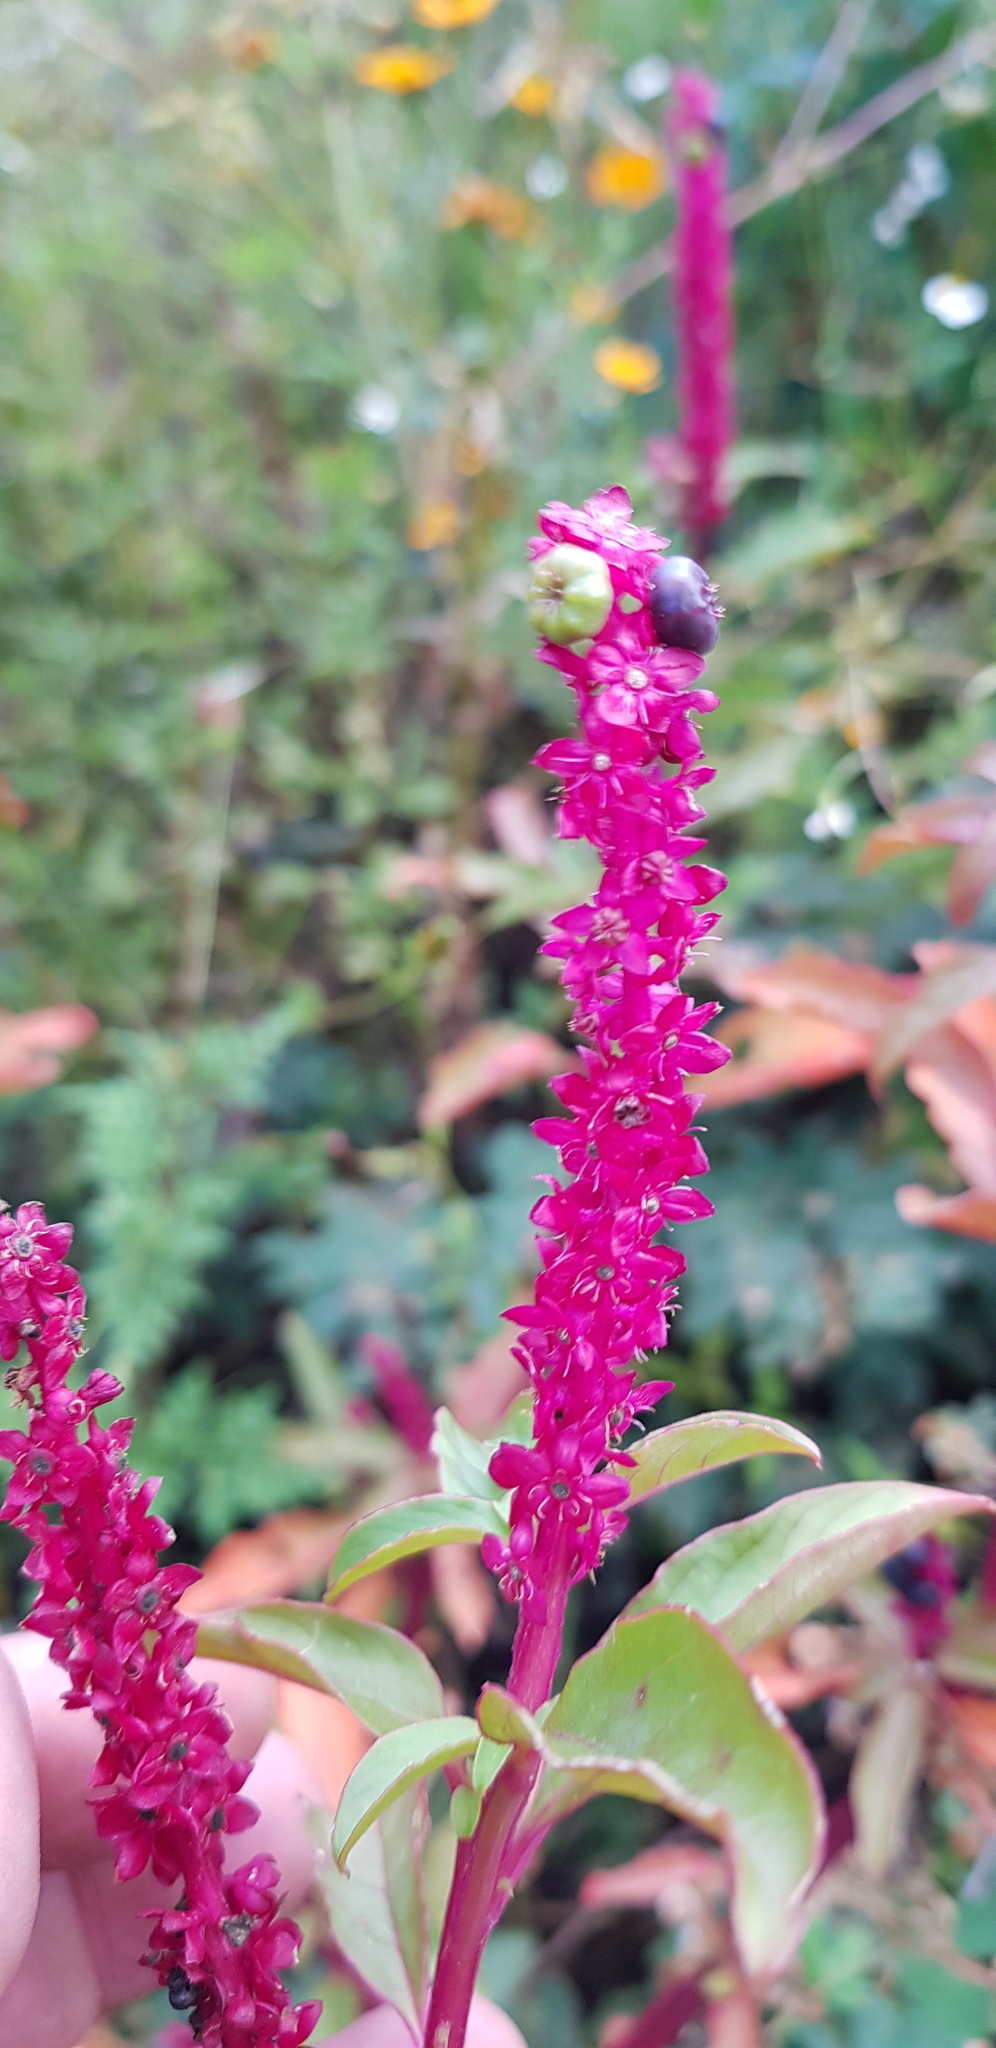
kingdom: Plantae
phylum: Tracheophyta
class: Magnoliopsida
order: Caryophyllales
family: Phytolaccaceae
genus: Phytolacca
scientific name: Phytolacca icosandra
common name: Button pokeweed
